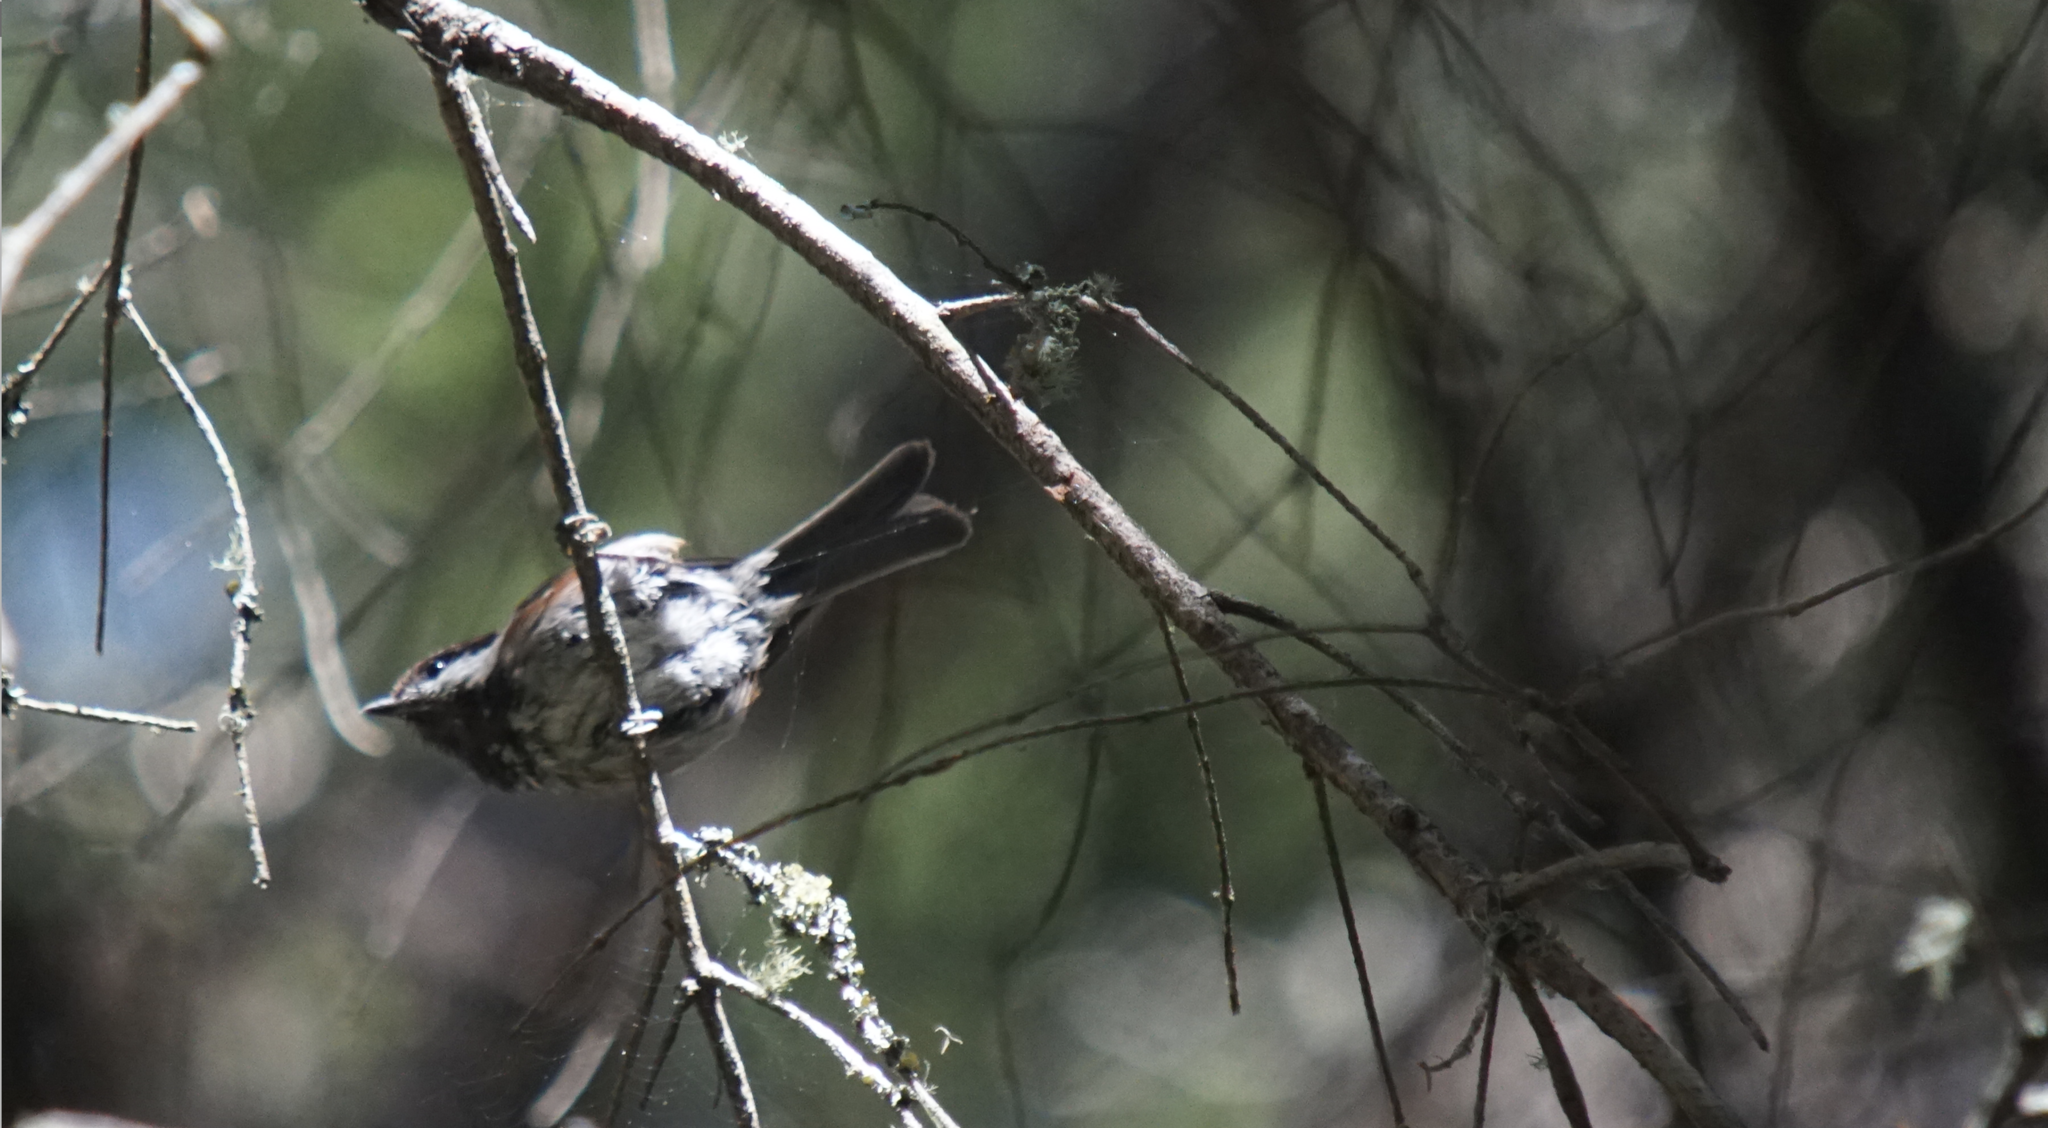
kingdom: Animalia
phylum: Chordata
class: Aves
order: Passeriformes
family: Paridae
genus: Poecile
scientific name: Poecile rufescens
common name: Chestnut-backed chickadee
